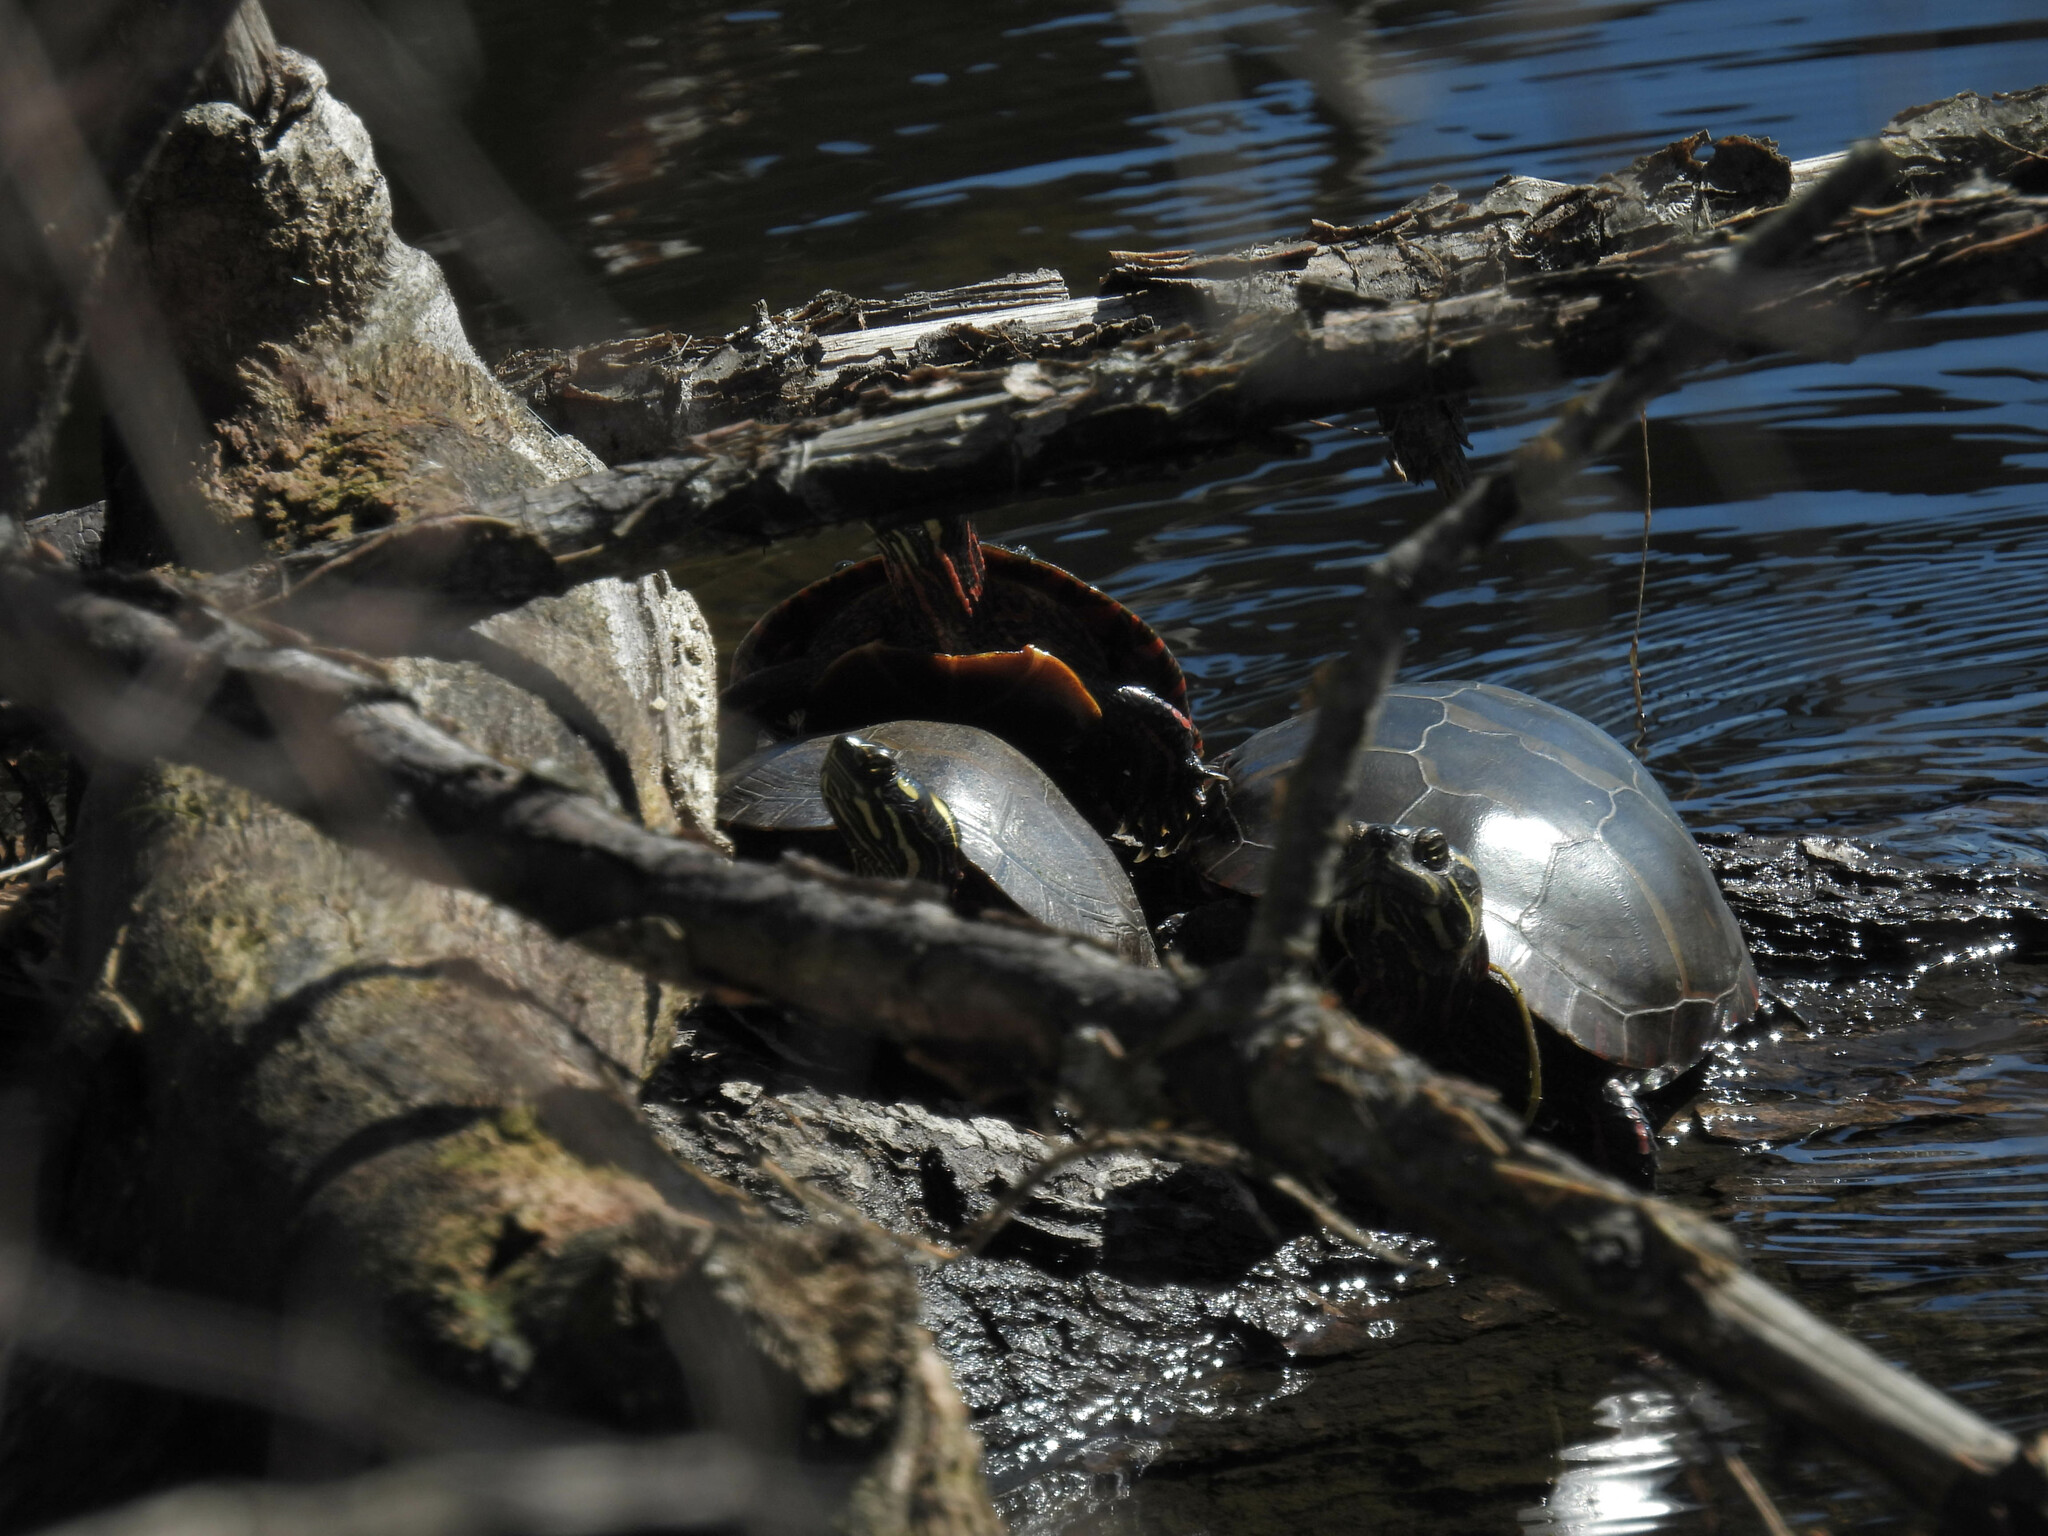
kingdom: Animalia
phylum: Chordata
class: Testudines
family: Emydidae
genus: Chrysemys
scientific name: Chrysemys picta
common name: Painted turtle
